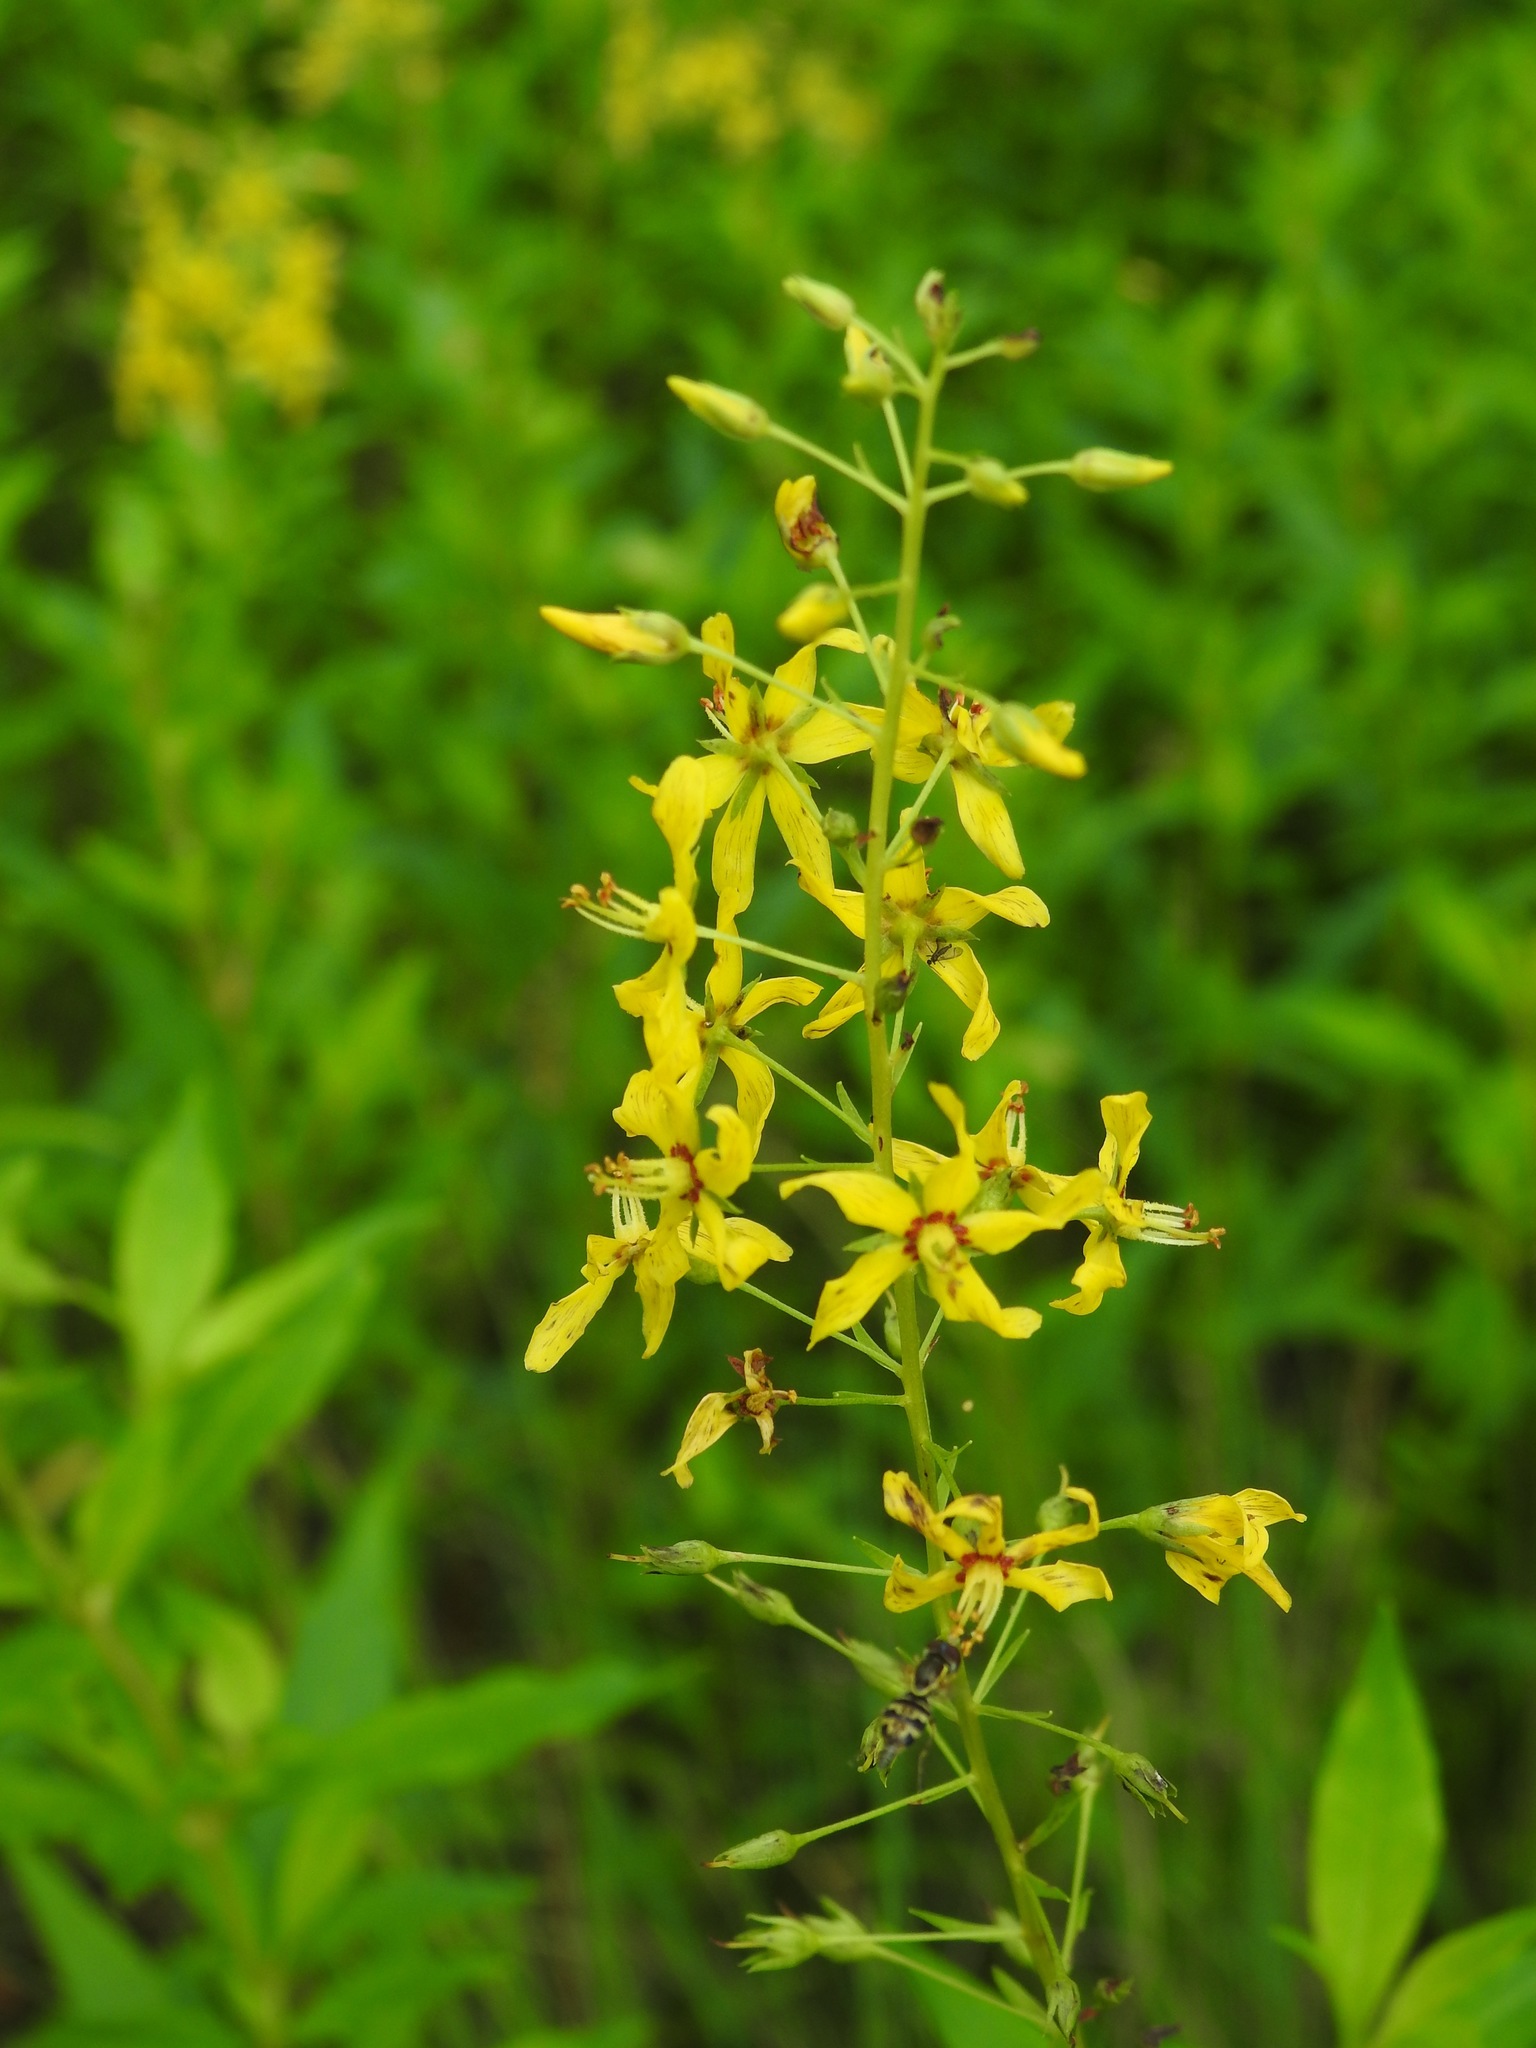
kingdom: Plantae
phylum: Tracheophyta
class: Magnoliopsida
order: Ericales
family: Primulaceae
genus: Lysimachia
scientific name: Lysimachia terrestris
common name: Lake loosestrife
